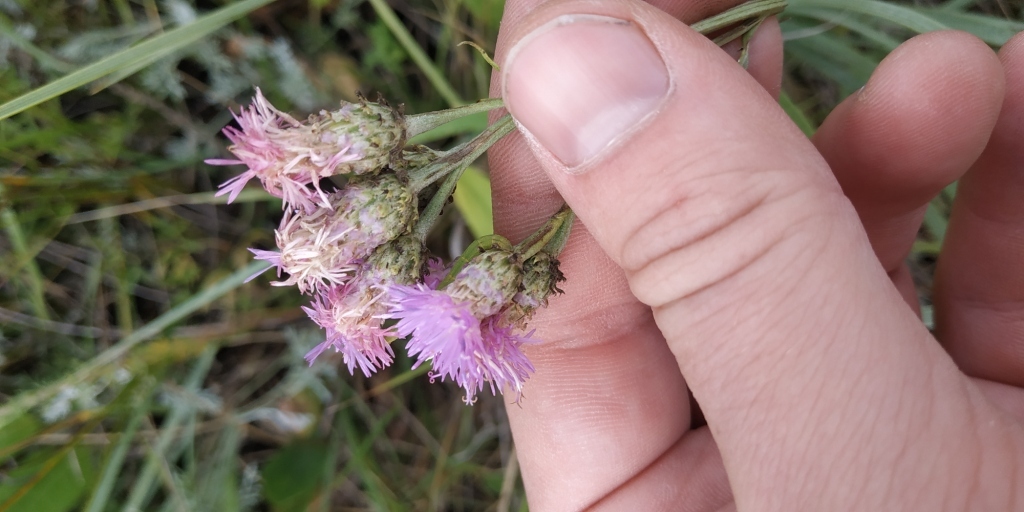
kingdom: Plantae
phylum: Tracheophyta
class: Magnoliopsida
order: Asterales
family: Asteraceae
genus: Saussurea
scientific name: Saussurea amara
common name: Alberta sawwort
